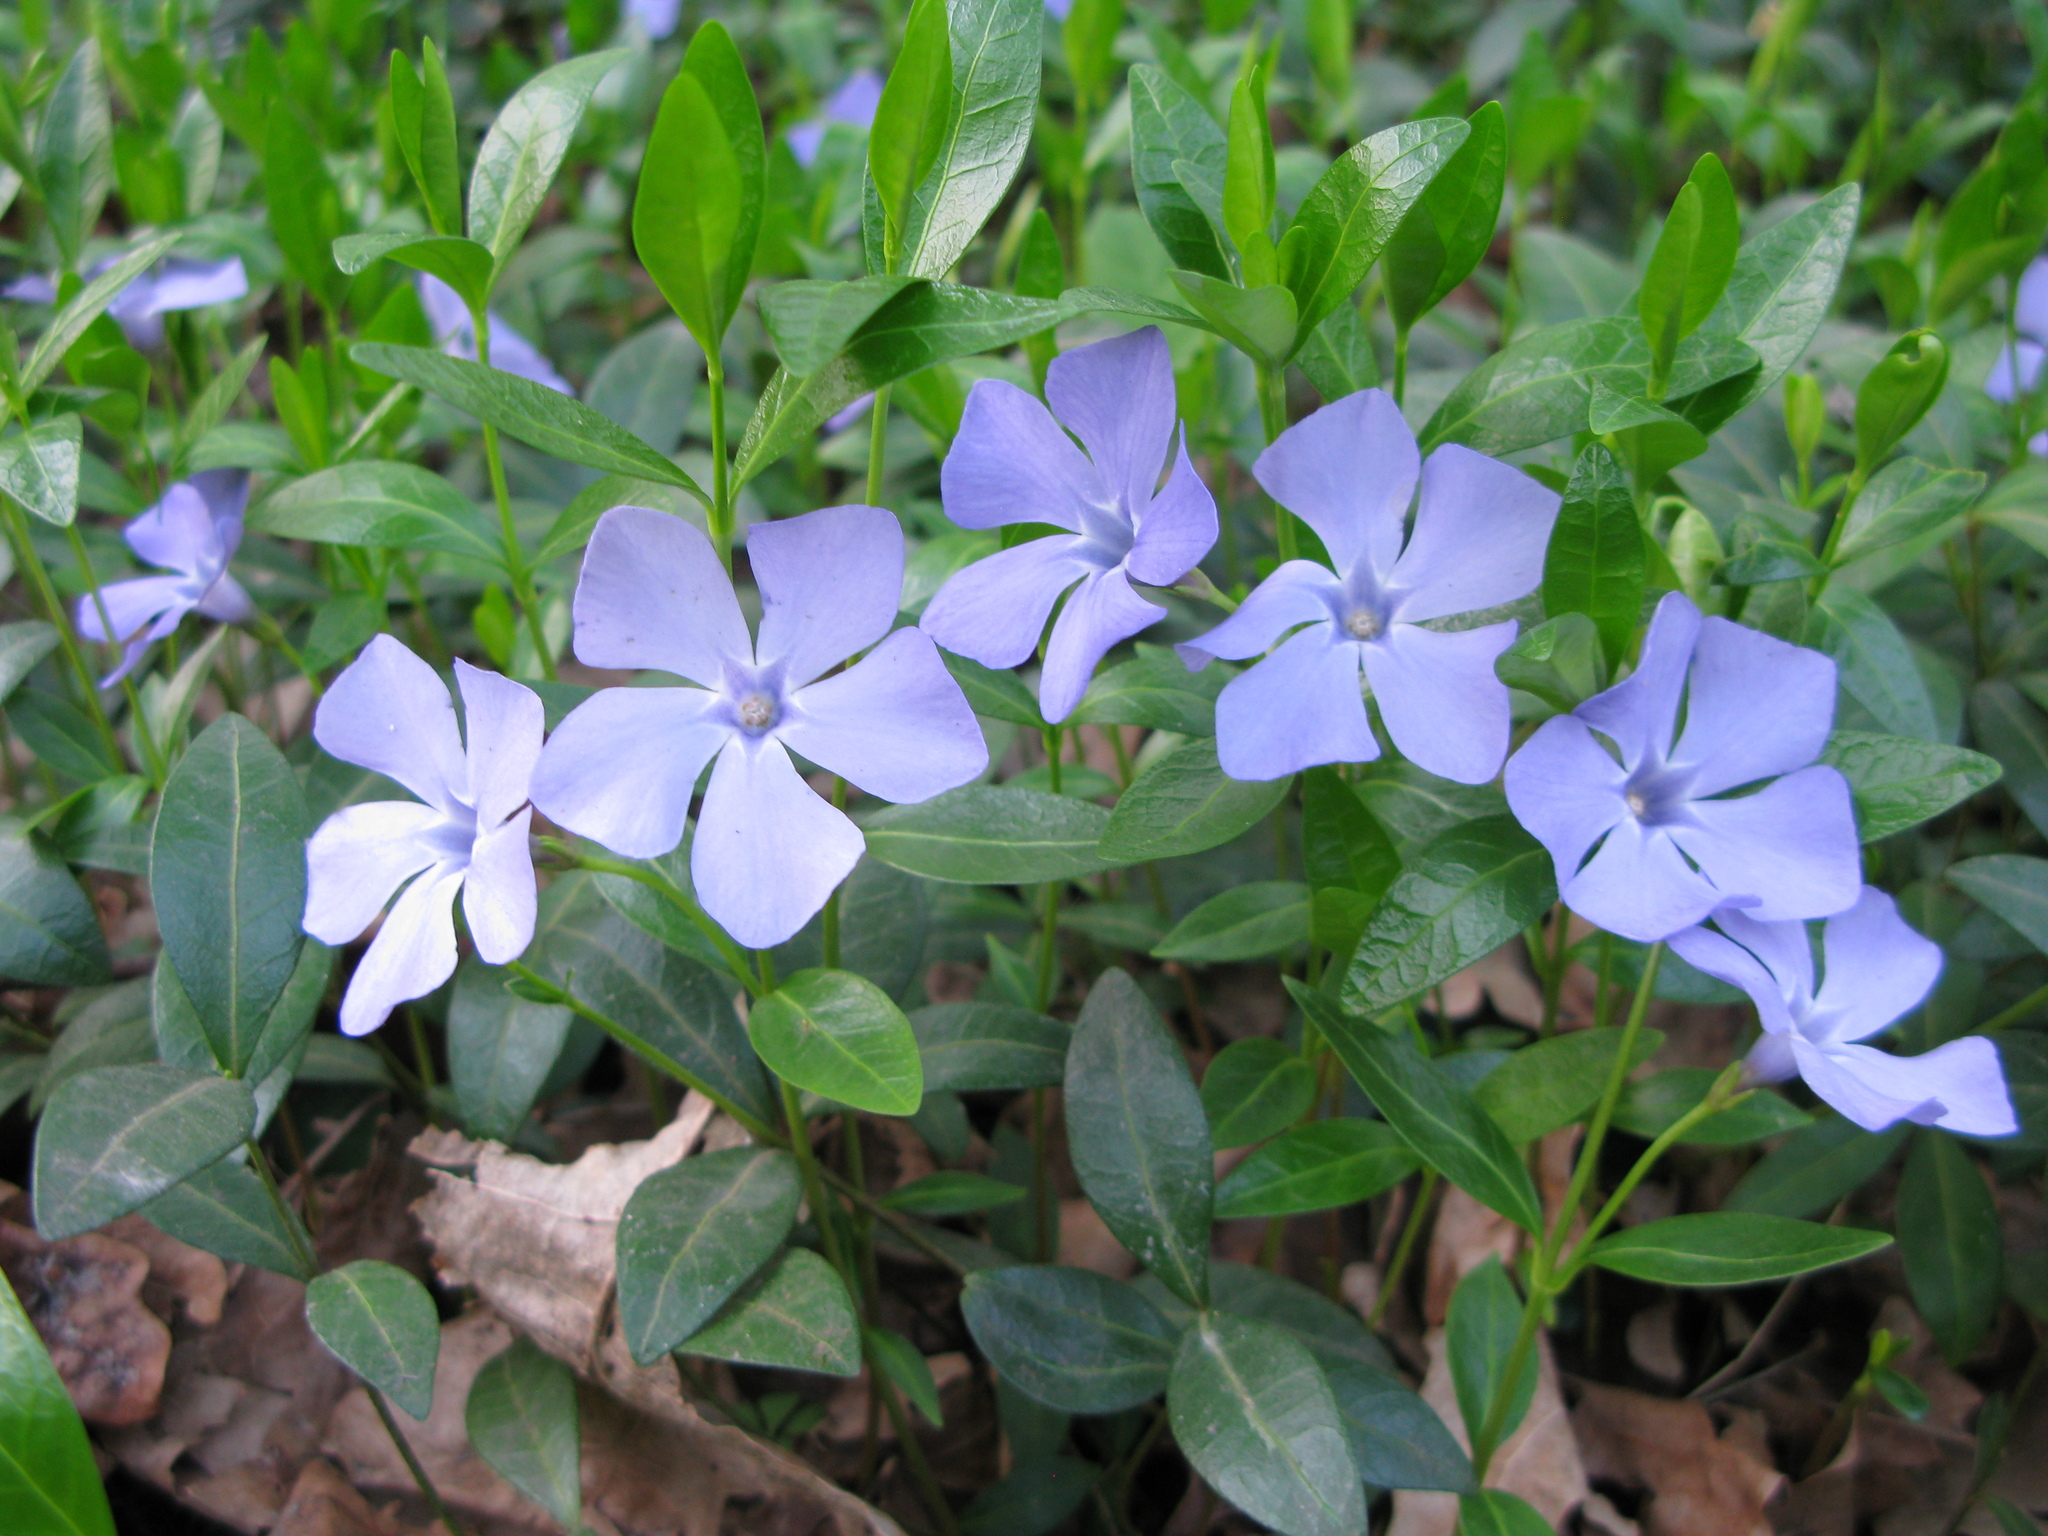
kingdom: Plantae
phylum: Tracheophyta
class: Magnoliopsida
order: Gentianales
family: Apocynaceae
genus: Vinca
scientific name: Vinca minor
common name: Lesser periwinkle
